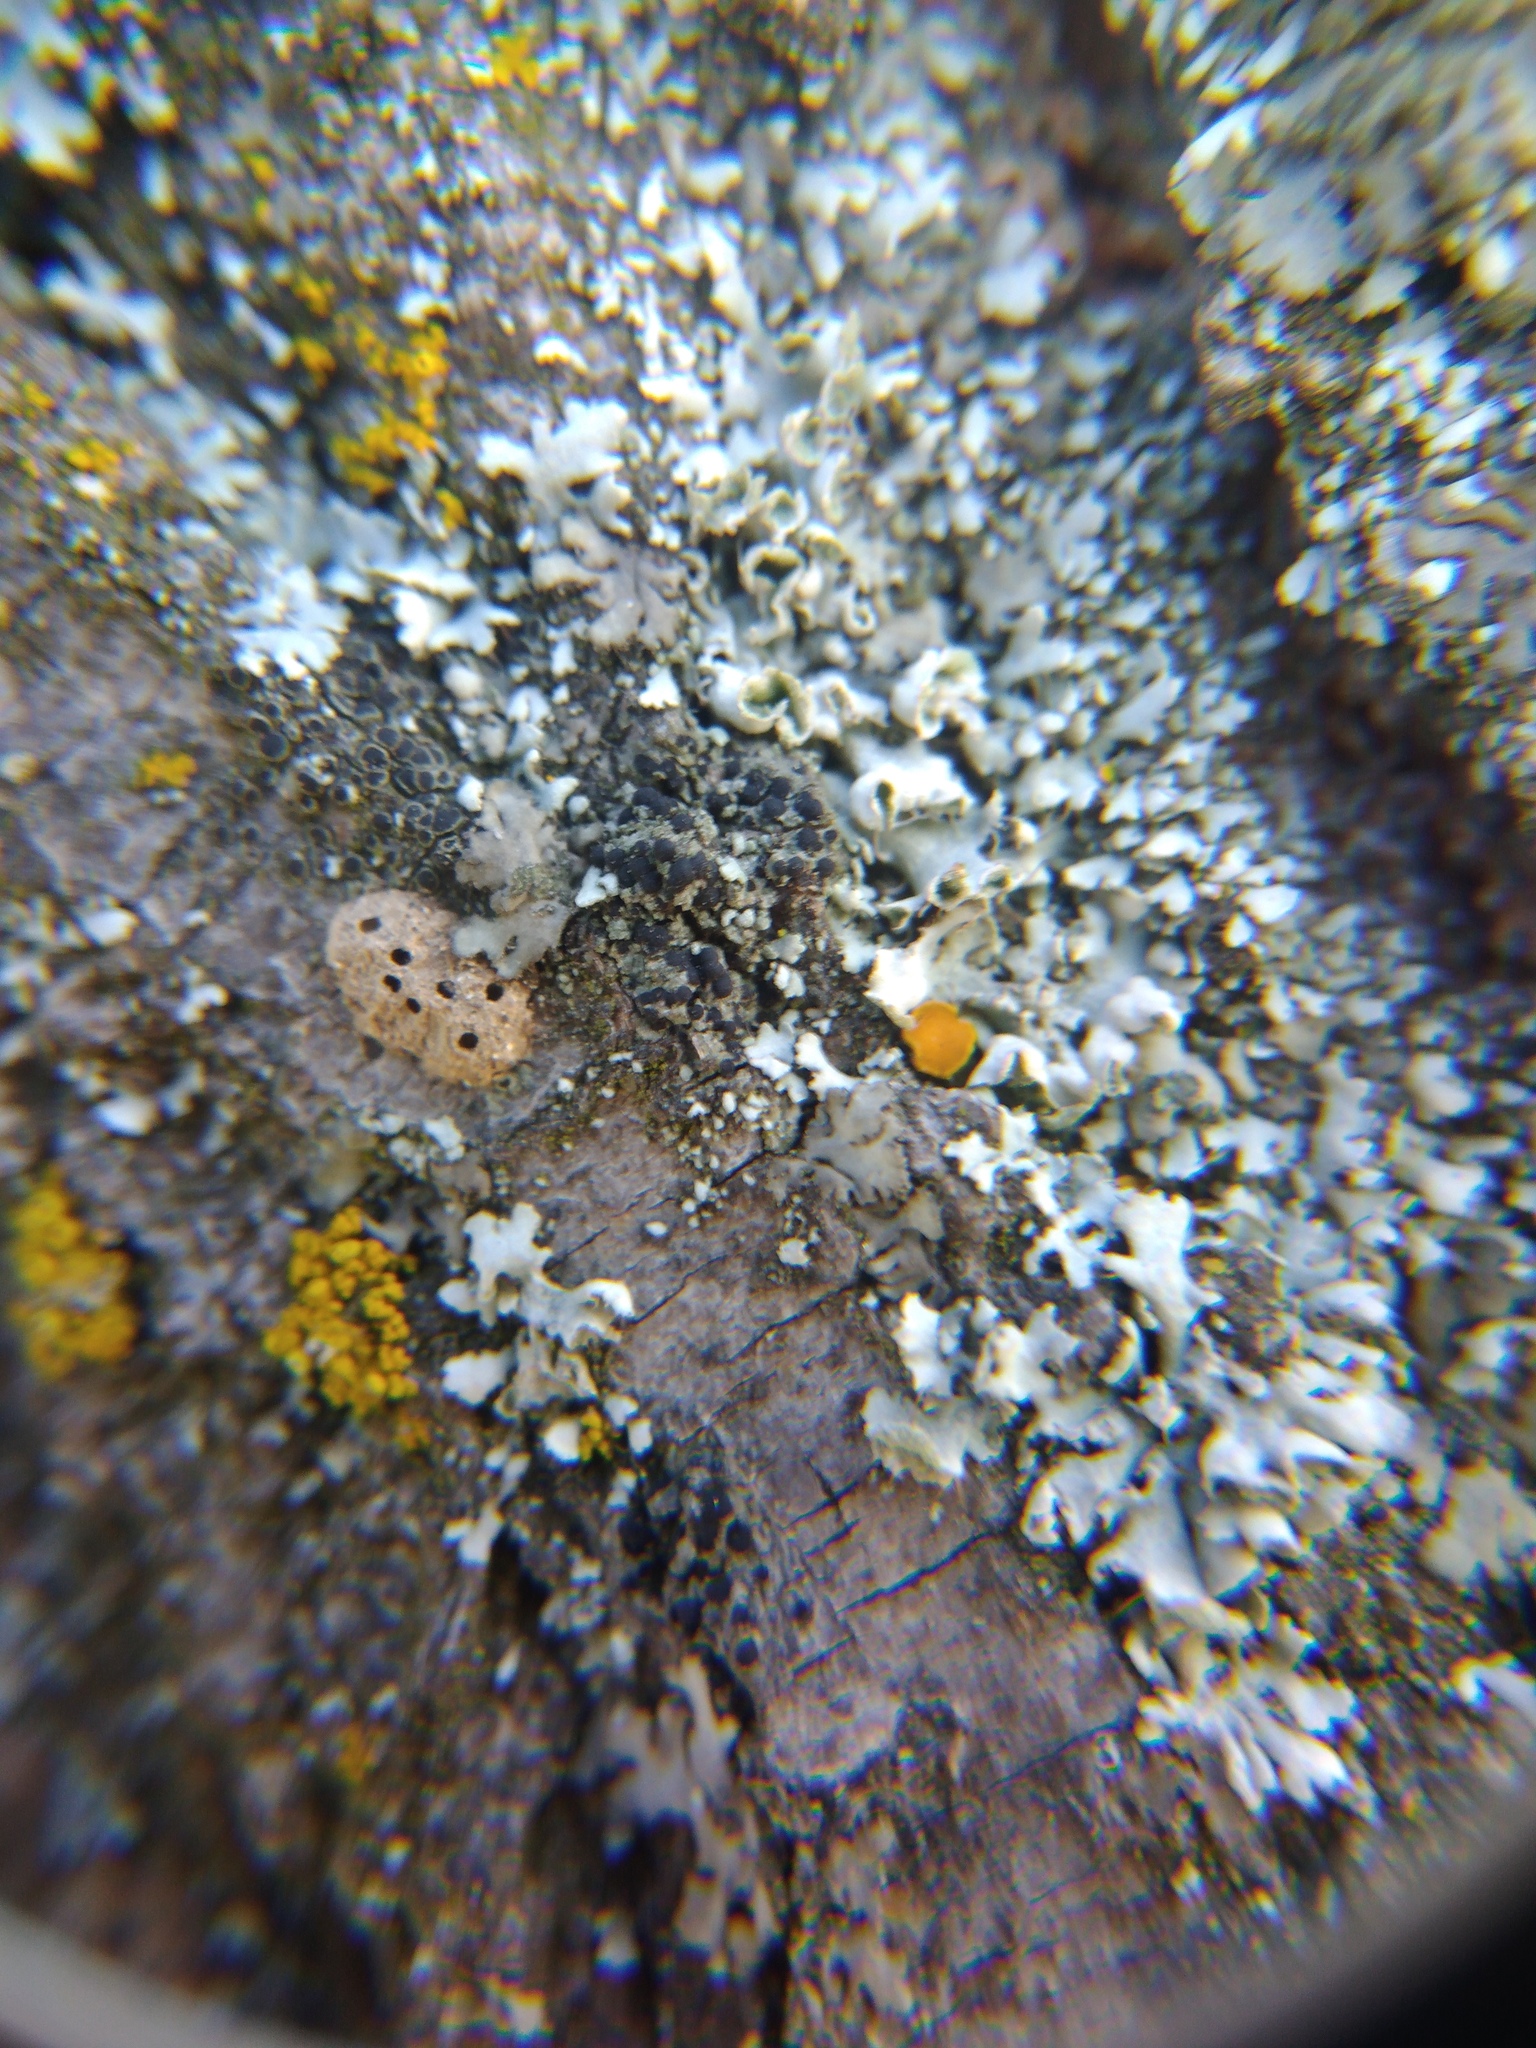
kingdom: Fungi
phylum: Ascomycota
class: Lecanoromycetes
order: Caliciales
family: Caliciaceae
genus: Amandinea
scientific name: Amandinea punctata
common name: Tiny button lichen
